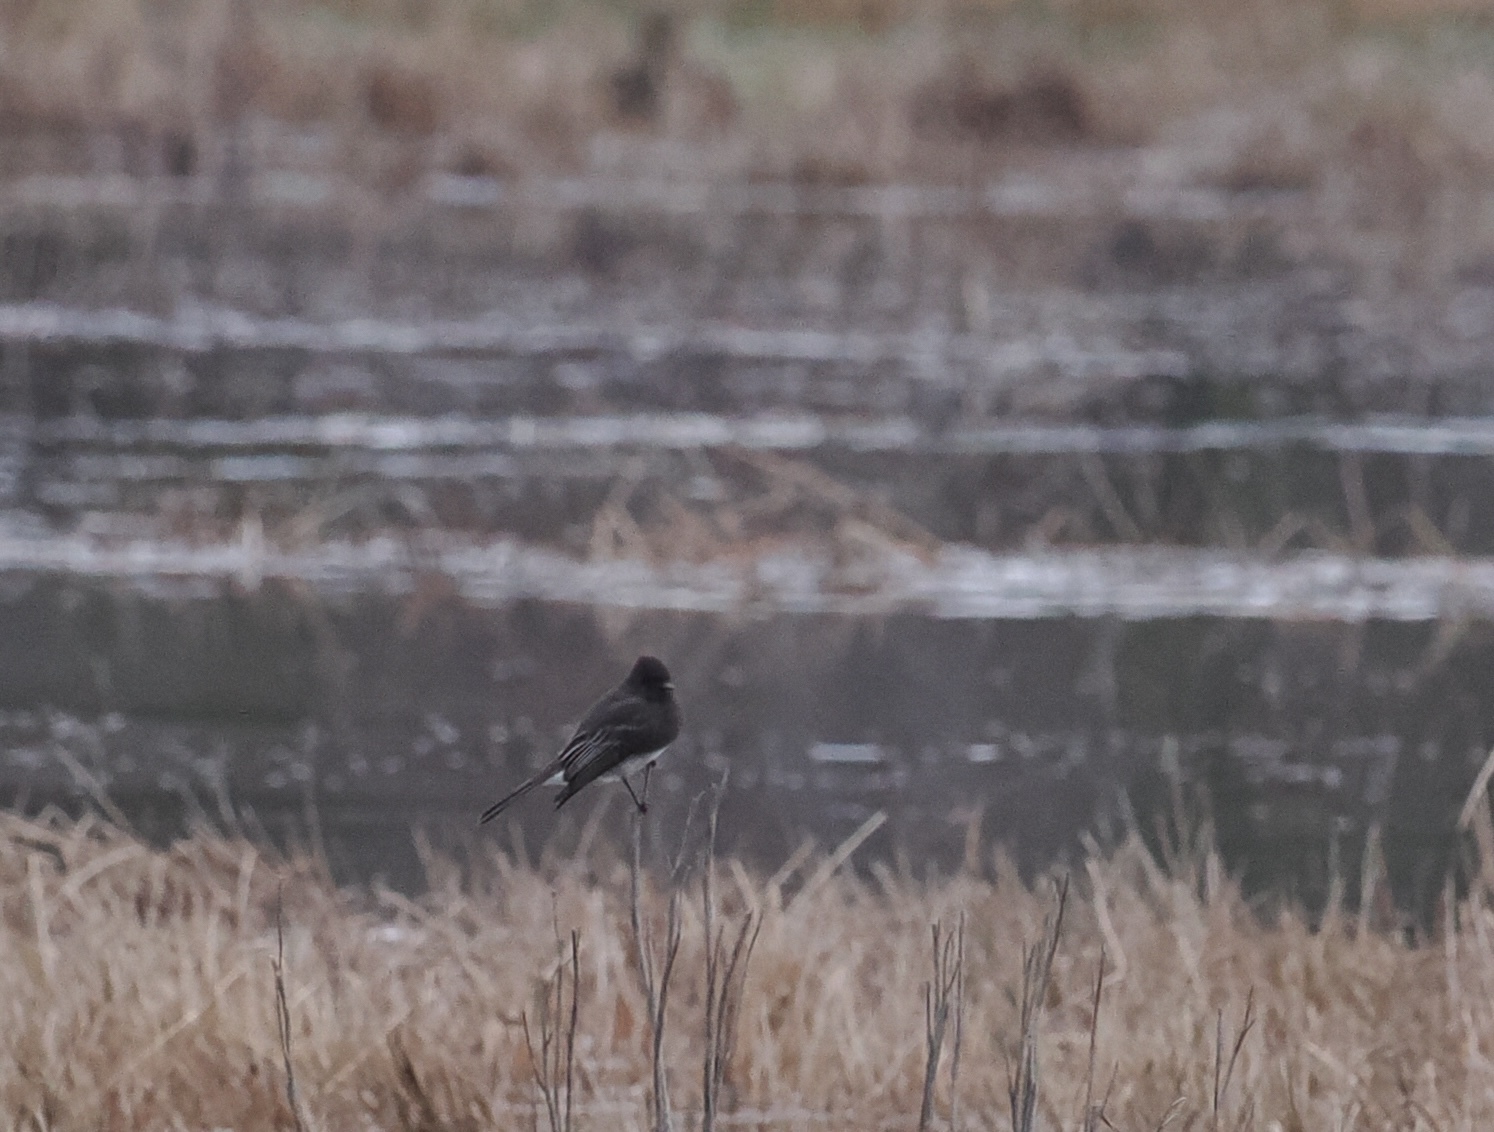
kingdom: Animalia
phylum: Chordata
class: Aves
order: Passeriformes
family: Tyrannidae
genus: Sayornis
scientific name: Sayornis nigricans
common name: Black phoebe
